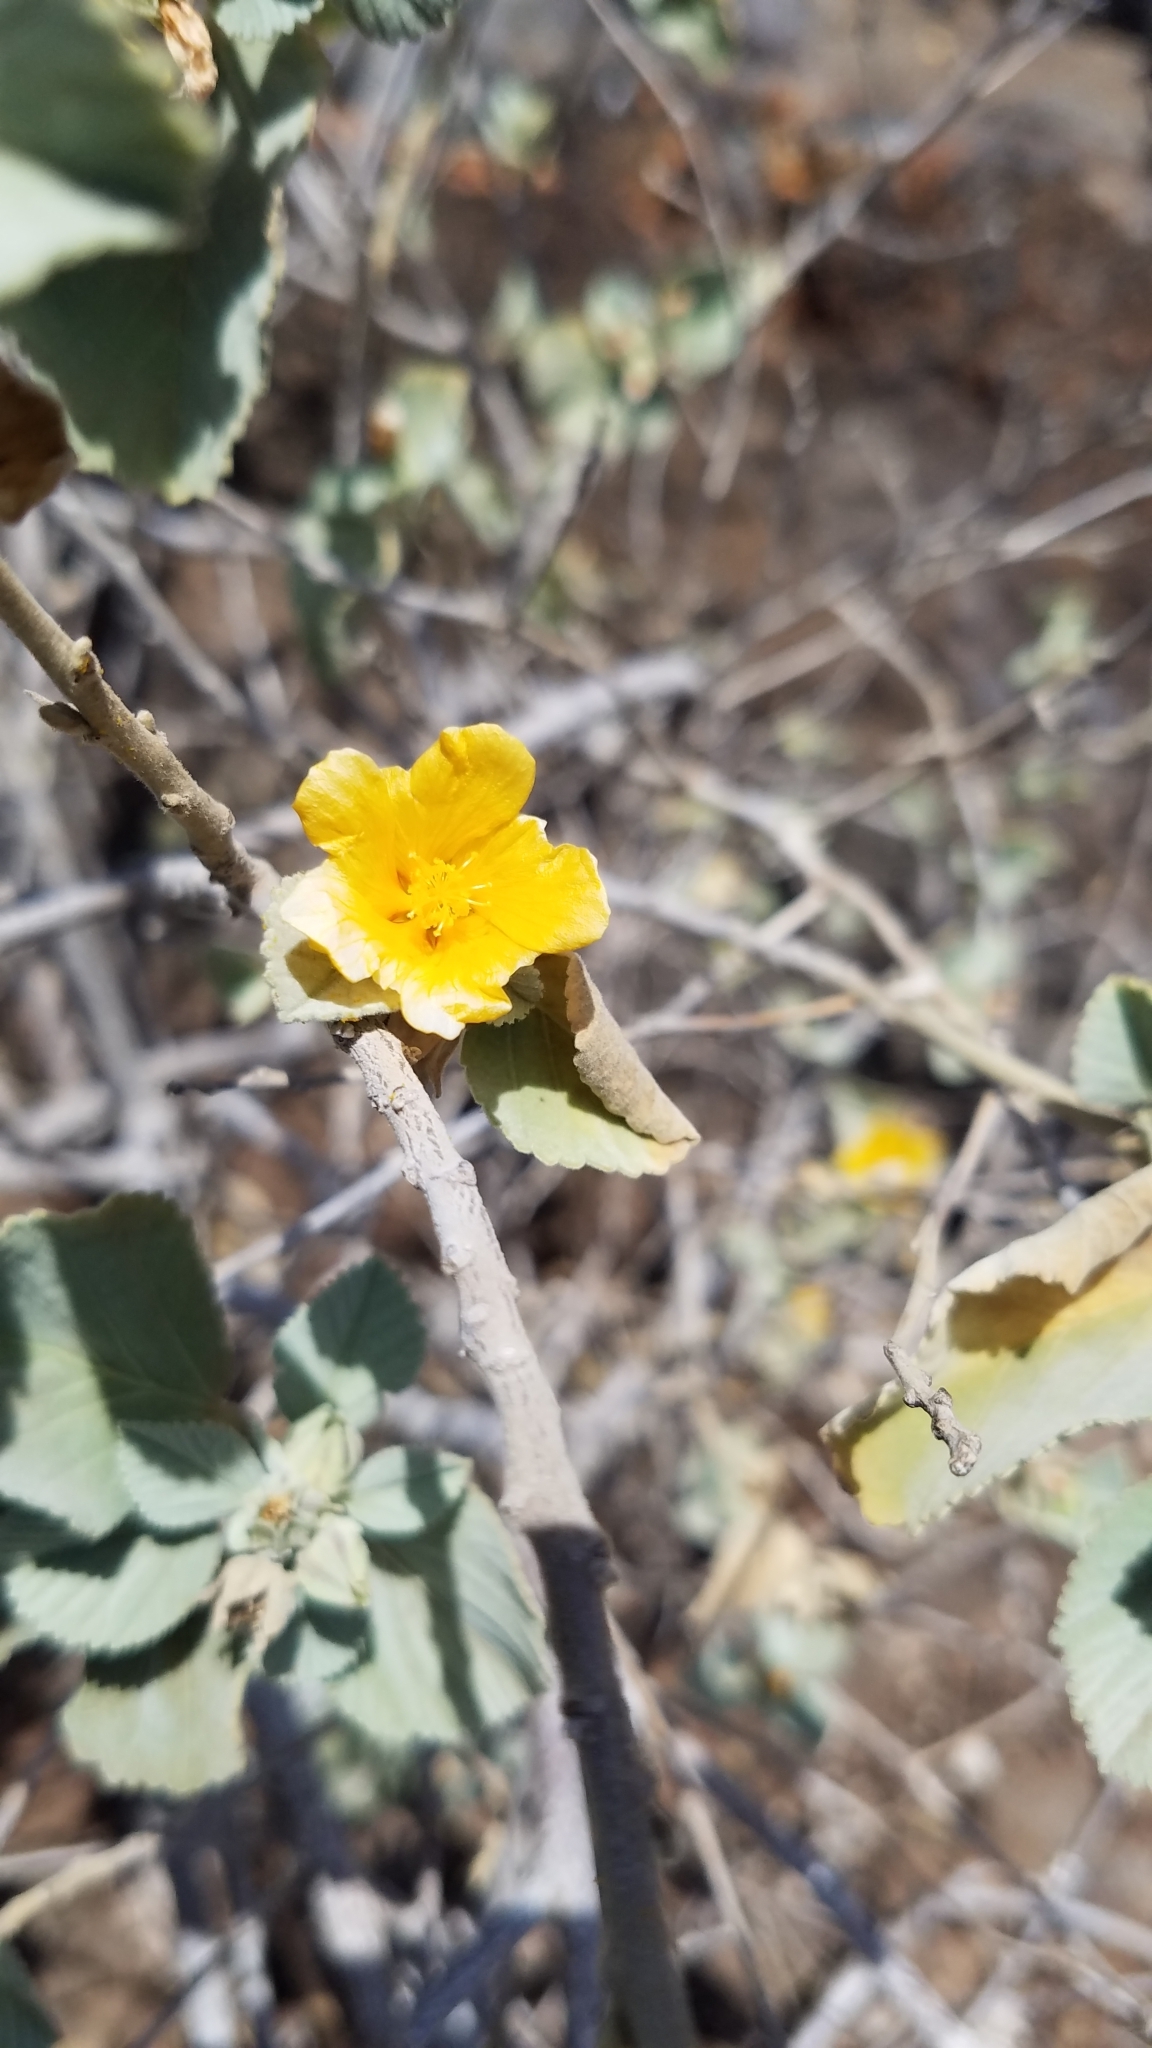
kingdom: Plantae
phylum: Tracheophyta
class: Magnoliopsida
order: Malvales
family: Malvaceae
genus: Sida
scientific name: Sida fallax
